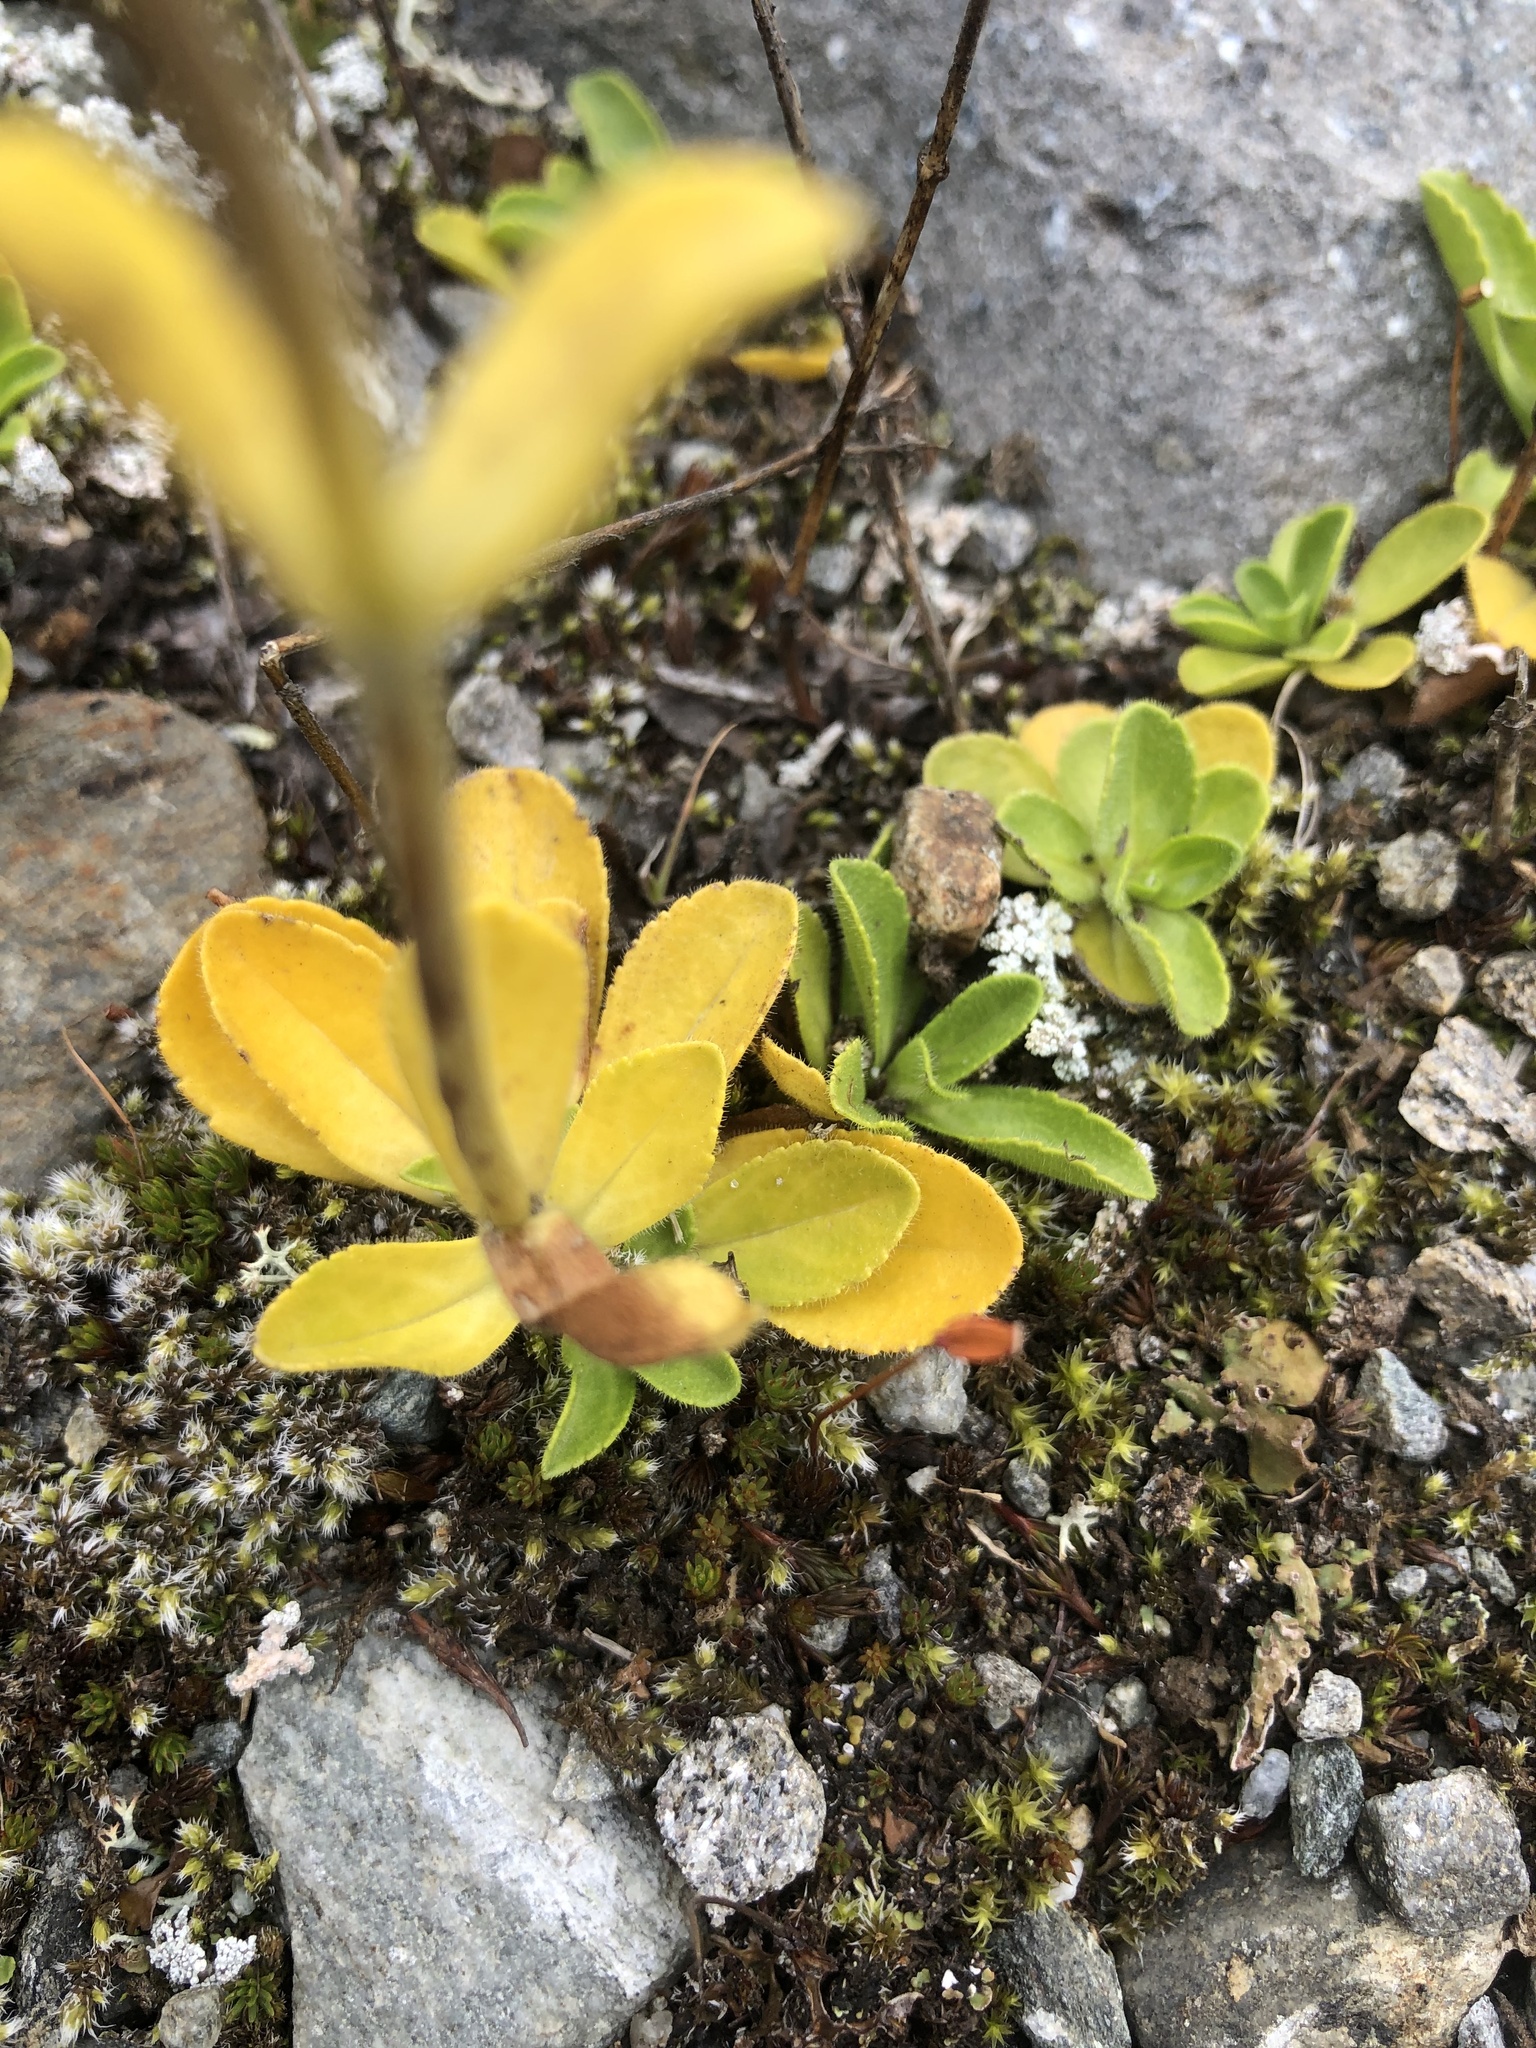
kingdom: Plantae
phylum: Tracheophyta
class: Magnoliopsida
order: Lamiales
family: Plantaginaceae
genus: Veronica
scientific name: Veronica alpina
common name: Alpine speedwell
